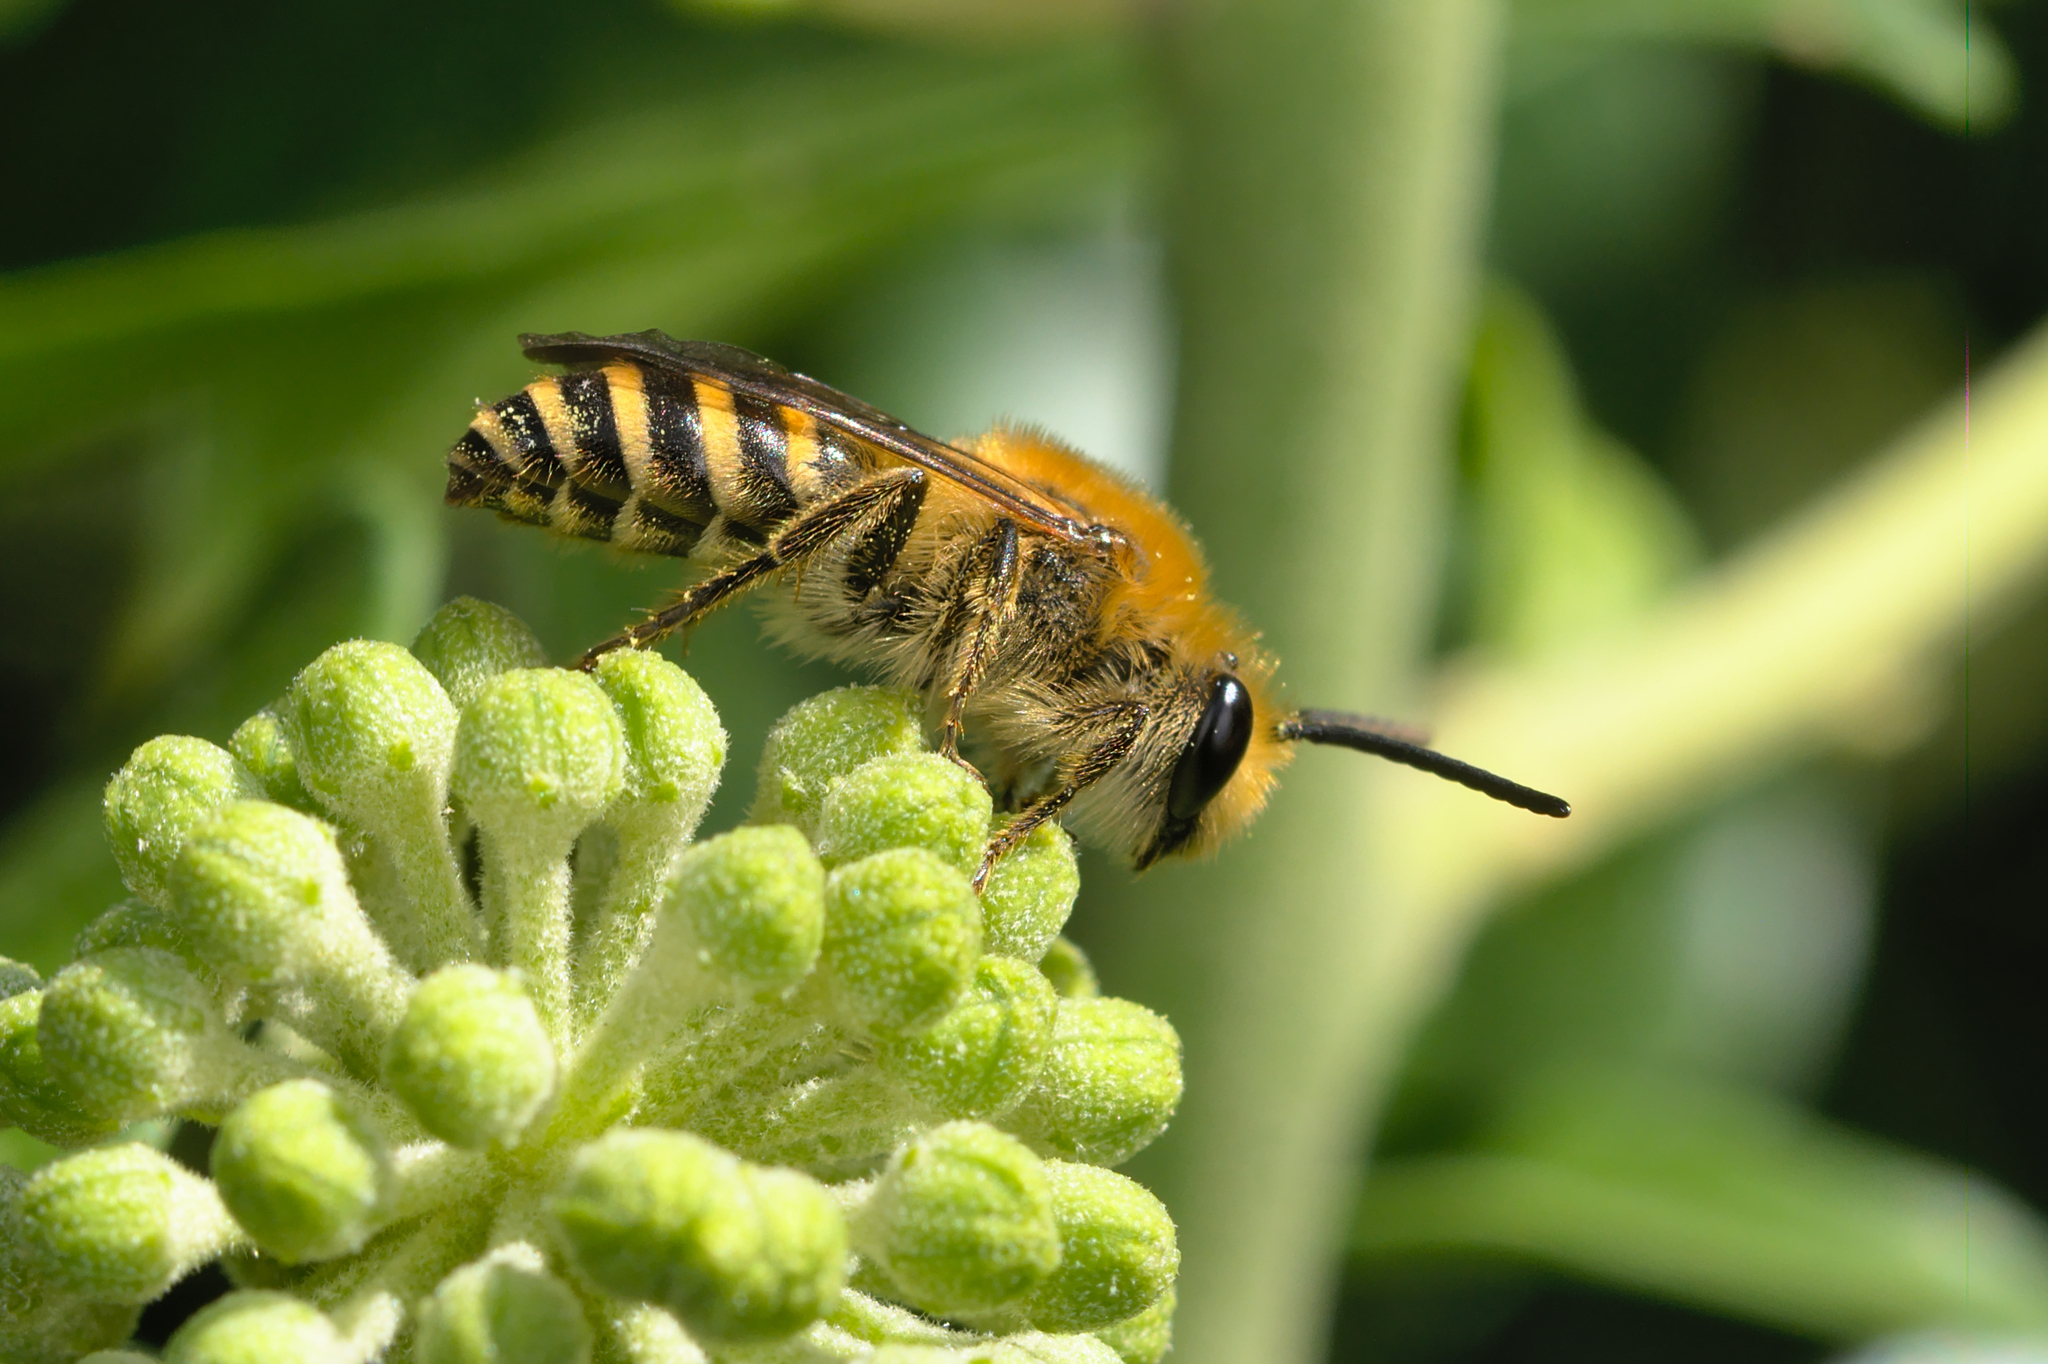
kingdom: Animalia
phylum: Arthropoda
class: Insecta
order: Hymenoptera
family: Colletidae
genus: Colletes
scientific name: Colletes hederae
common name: Ivy bee
